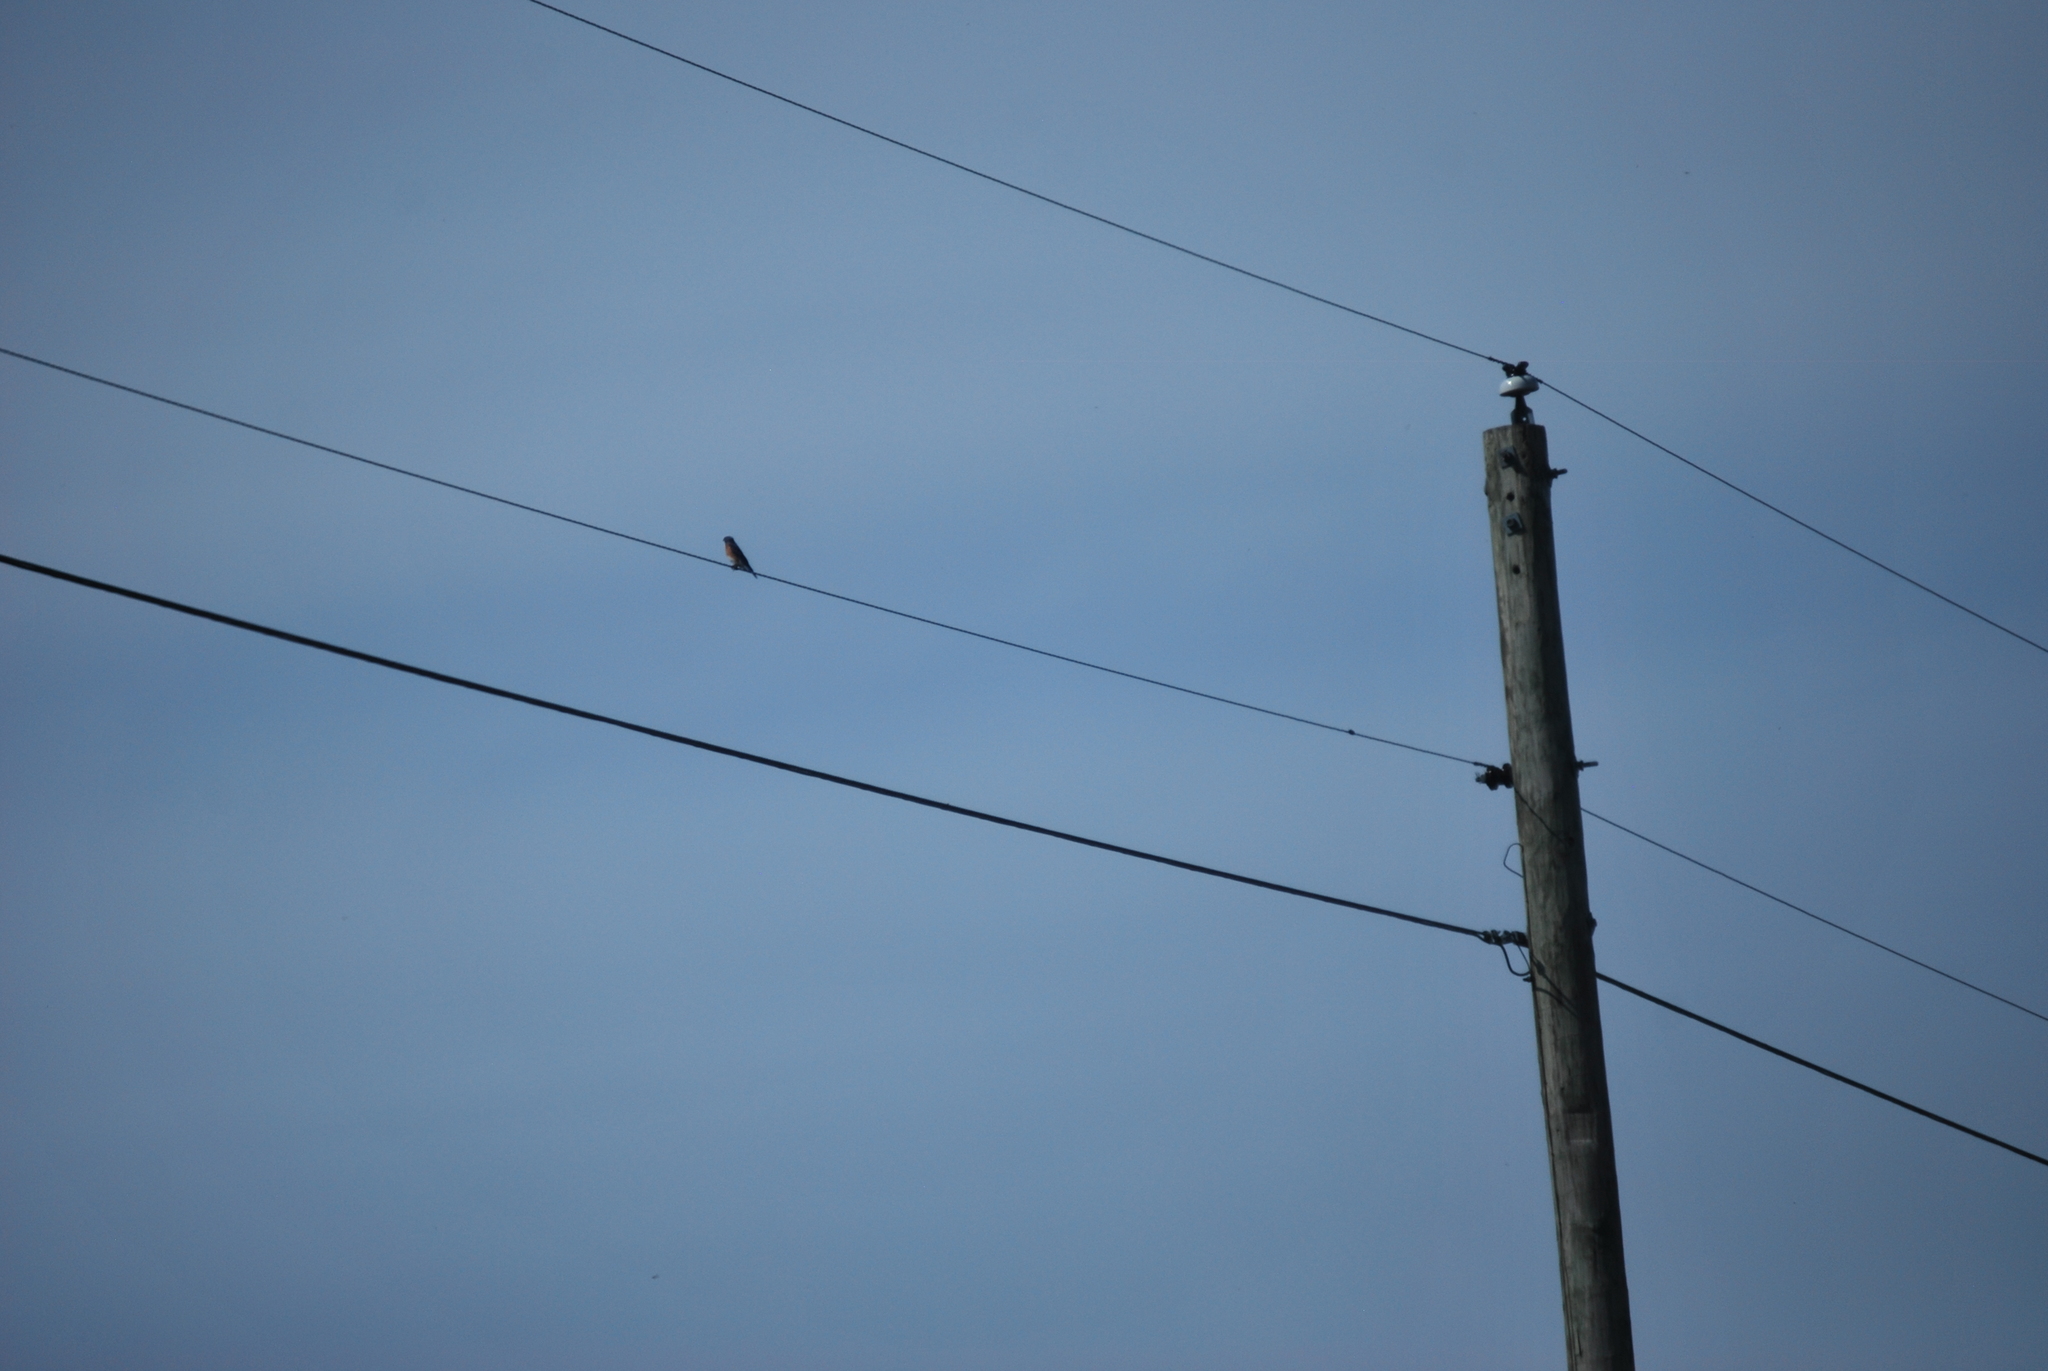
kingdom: Animalia
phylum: Chordata
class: Aves
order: Passeriformes
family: Turdidae
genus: Sialia
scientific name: Sialia sialis
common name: Eastern bluebird
